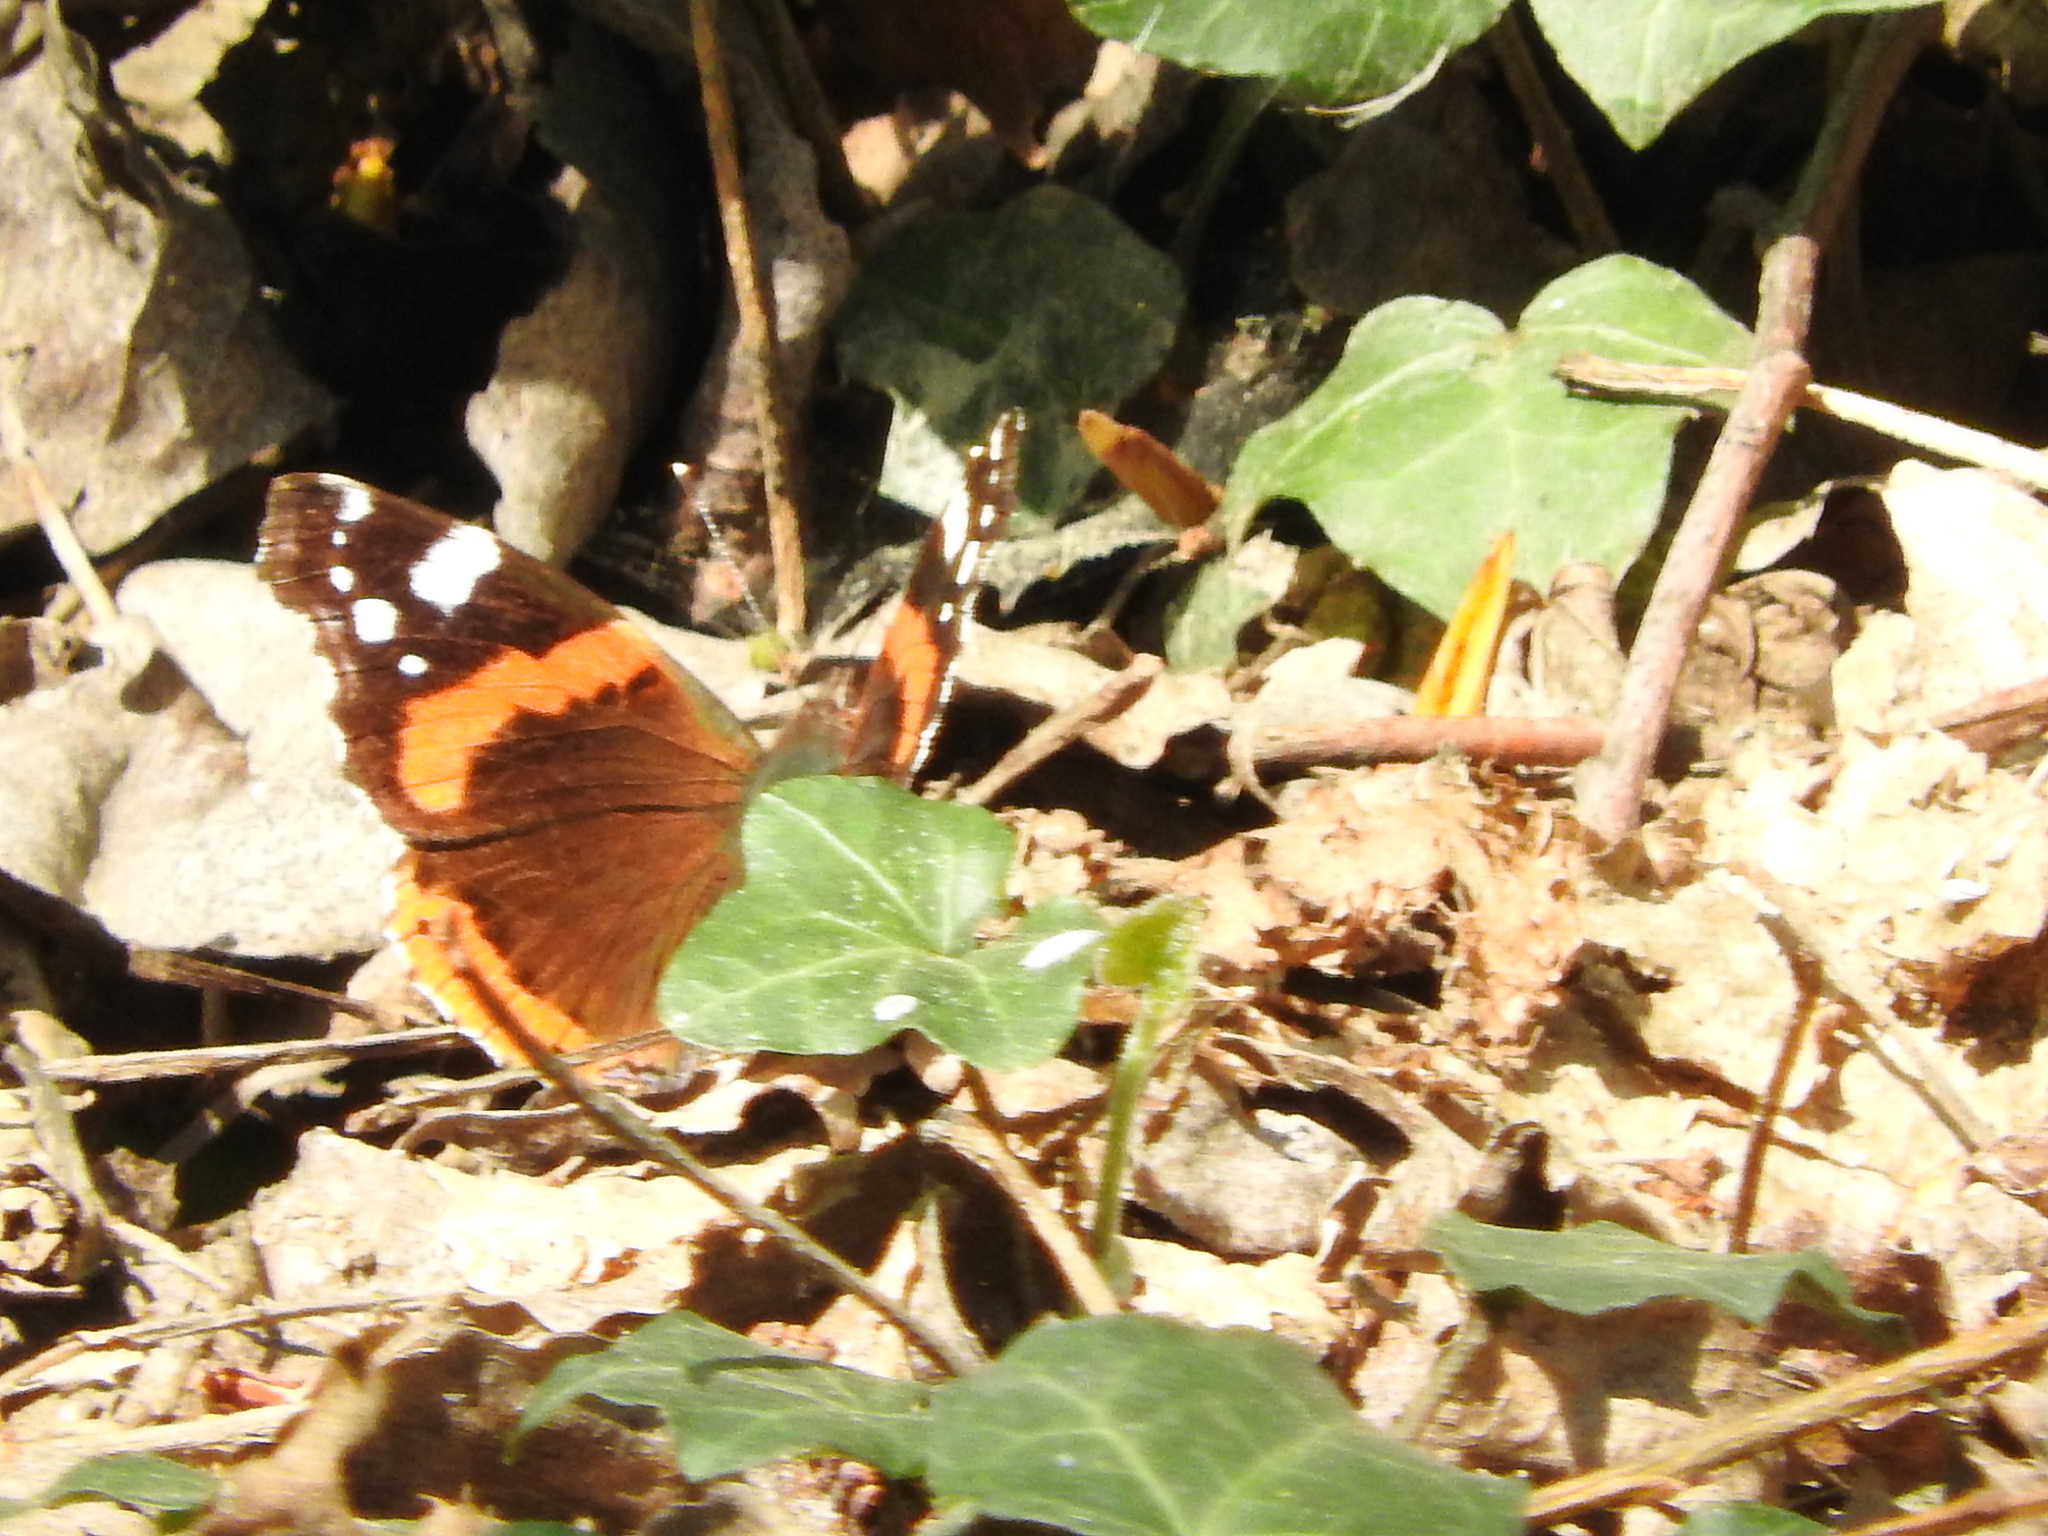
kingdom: Animalia
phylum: Arthropoda
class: Insecta
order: Lepidoptera
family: Nymphalidae
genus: Vanessa
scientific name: Vanessa atalanta
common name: Red admiral
